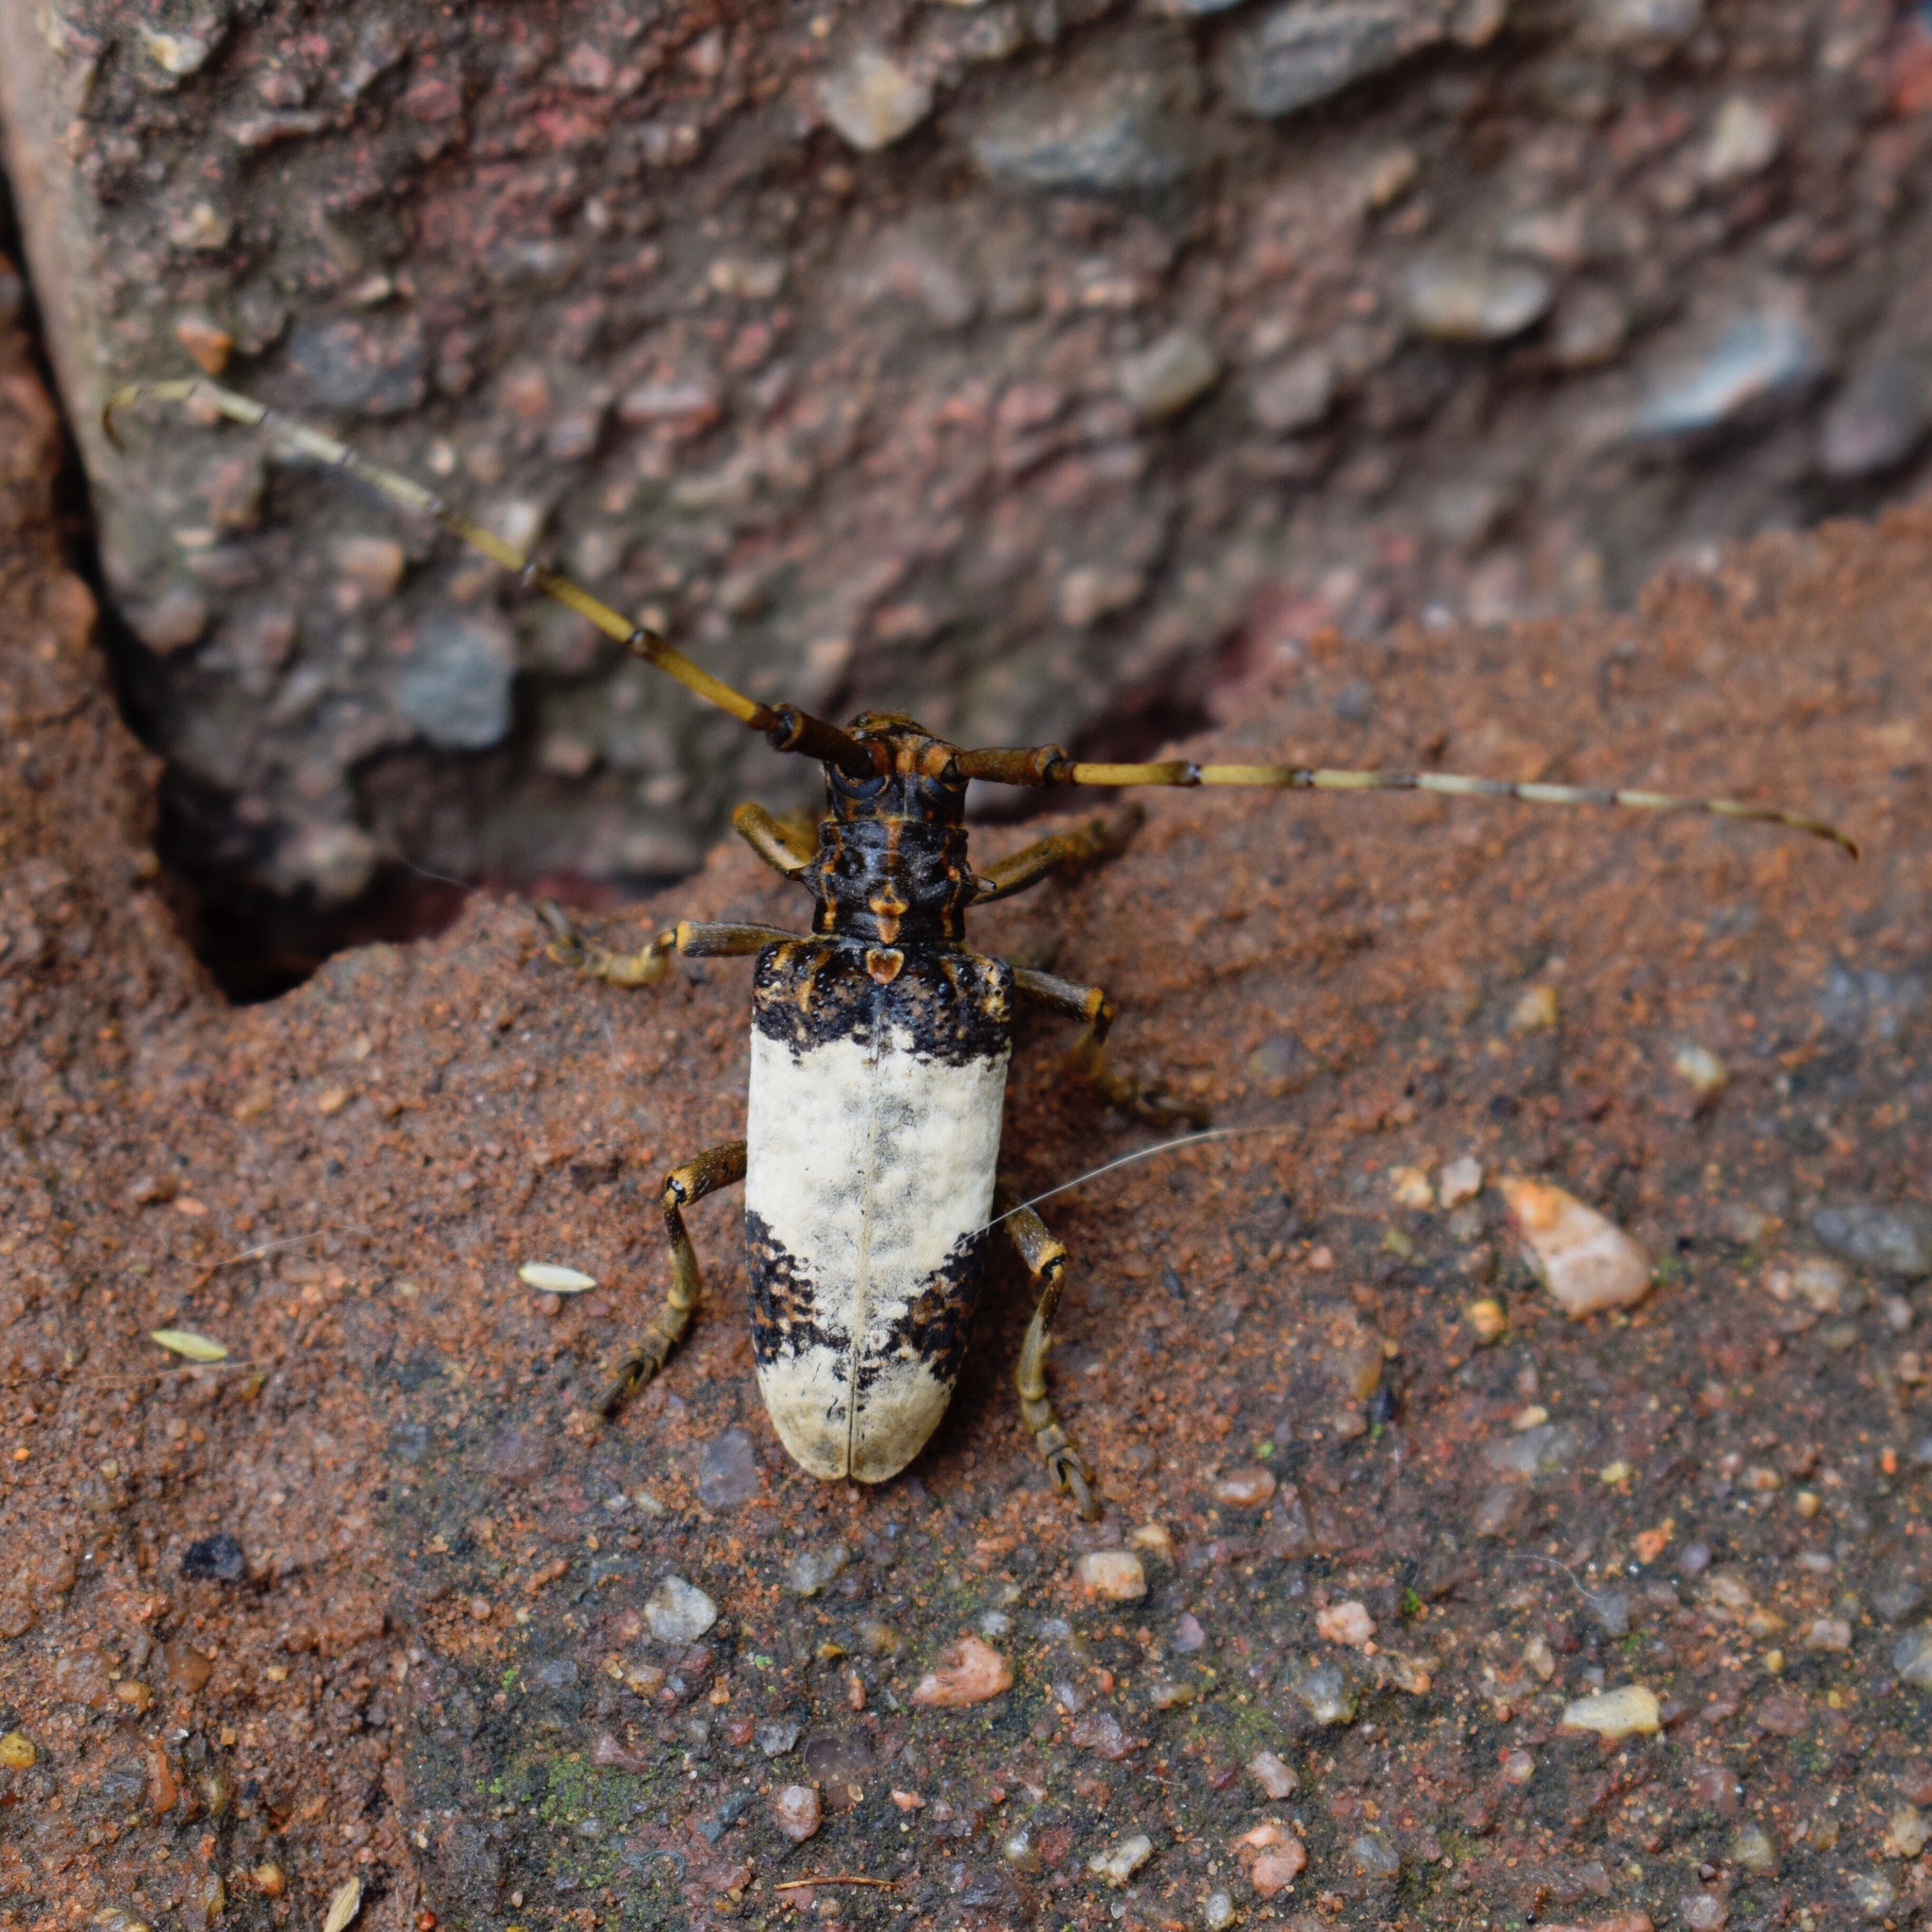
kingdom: Animalia
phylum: Arthropoda
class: Insecta
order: Coleoptera
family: Cerambycidae
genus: Anthores
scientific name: Anthores leuconotus
